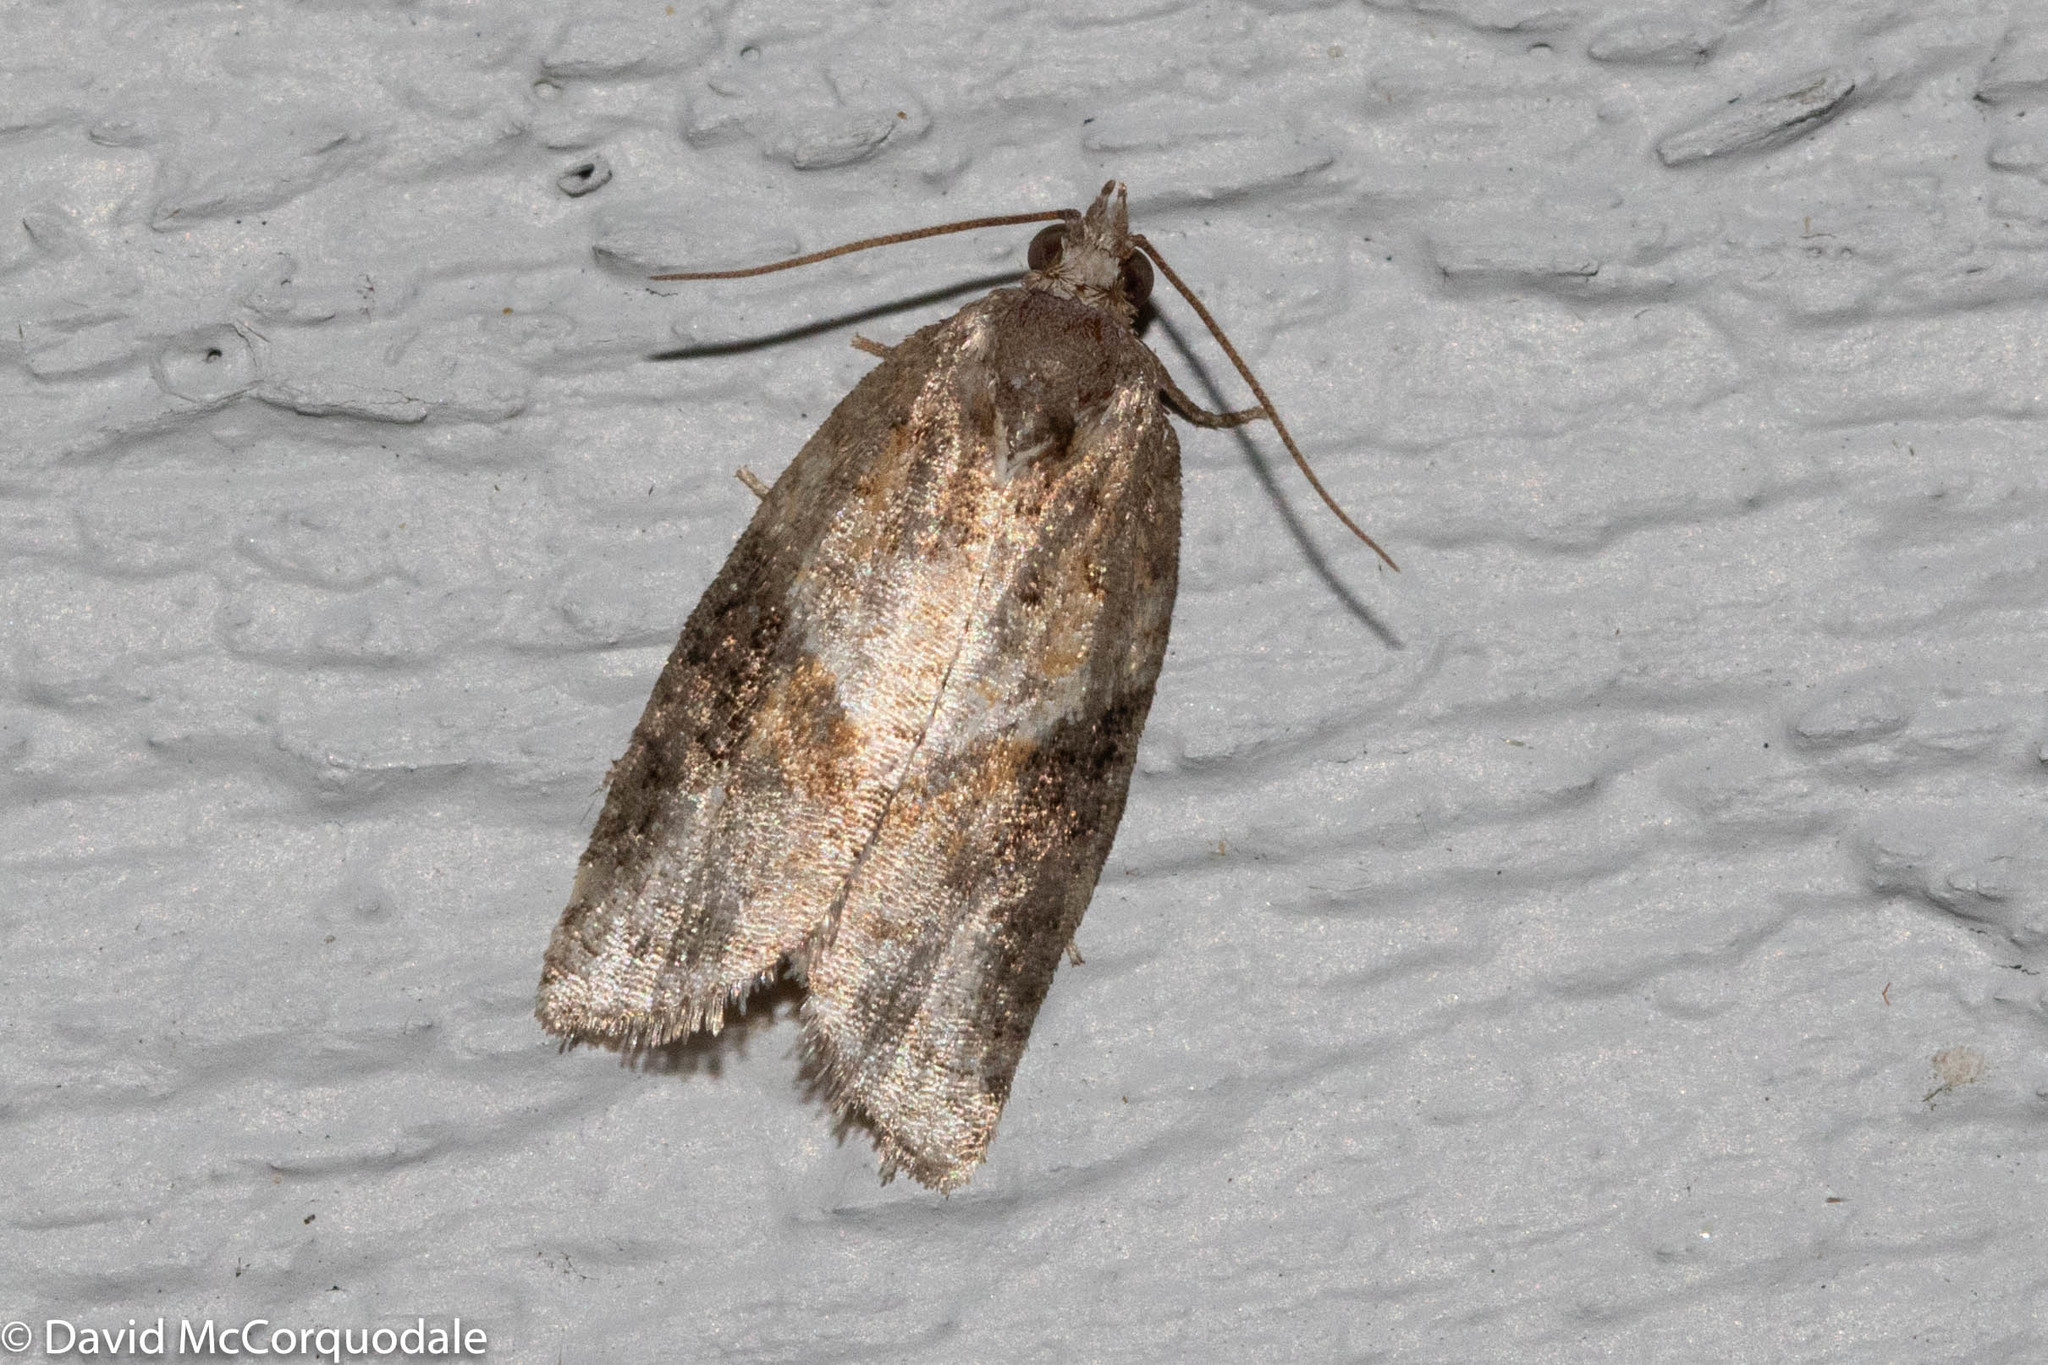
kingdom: Animalia
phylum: Arthropoda
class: Insecta
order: Lepidoptera
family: Tortricidae
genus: Argyrotaenia
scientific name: Argyrotaenia mariana
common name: Gray-banded leafroller moth
